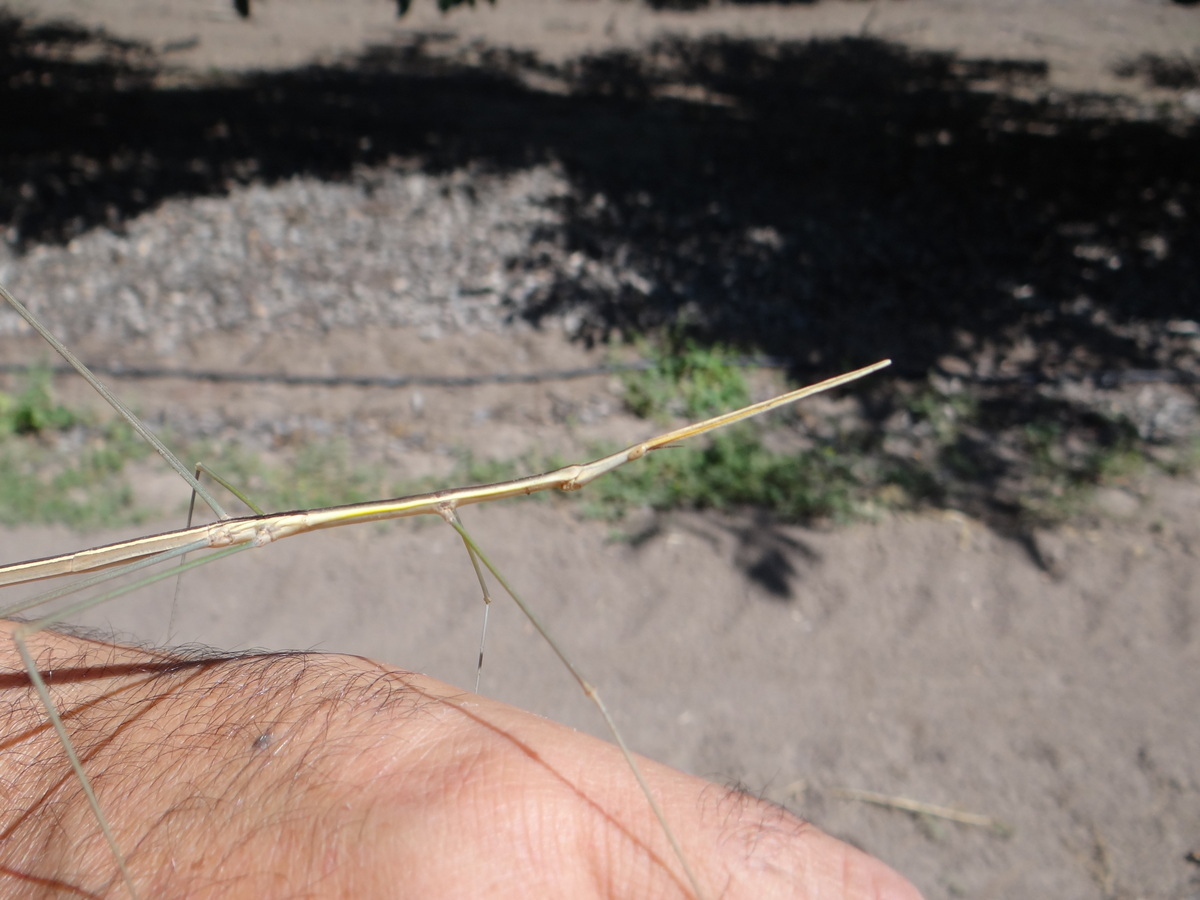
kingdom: Animalia
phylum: Arthropoda
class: Insecta
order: Orthoptera
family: Proscopiidae
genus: Carphoproscopia
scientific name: Carphoproscopia lancea
